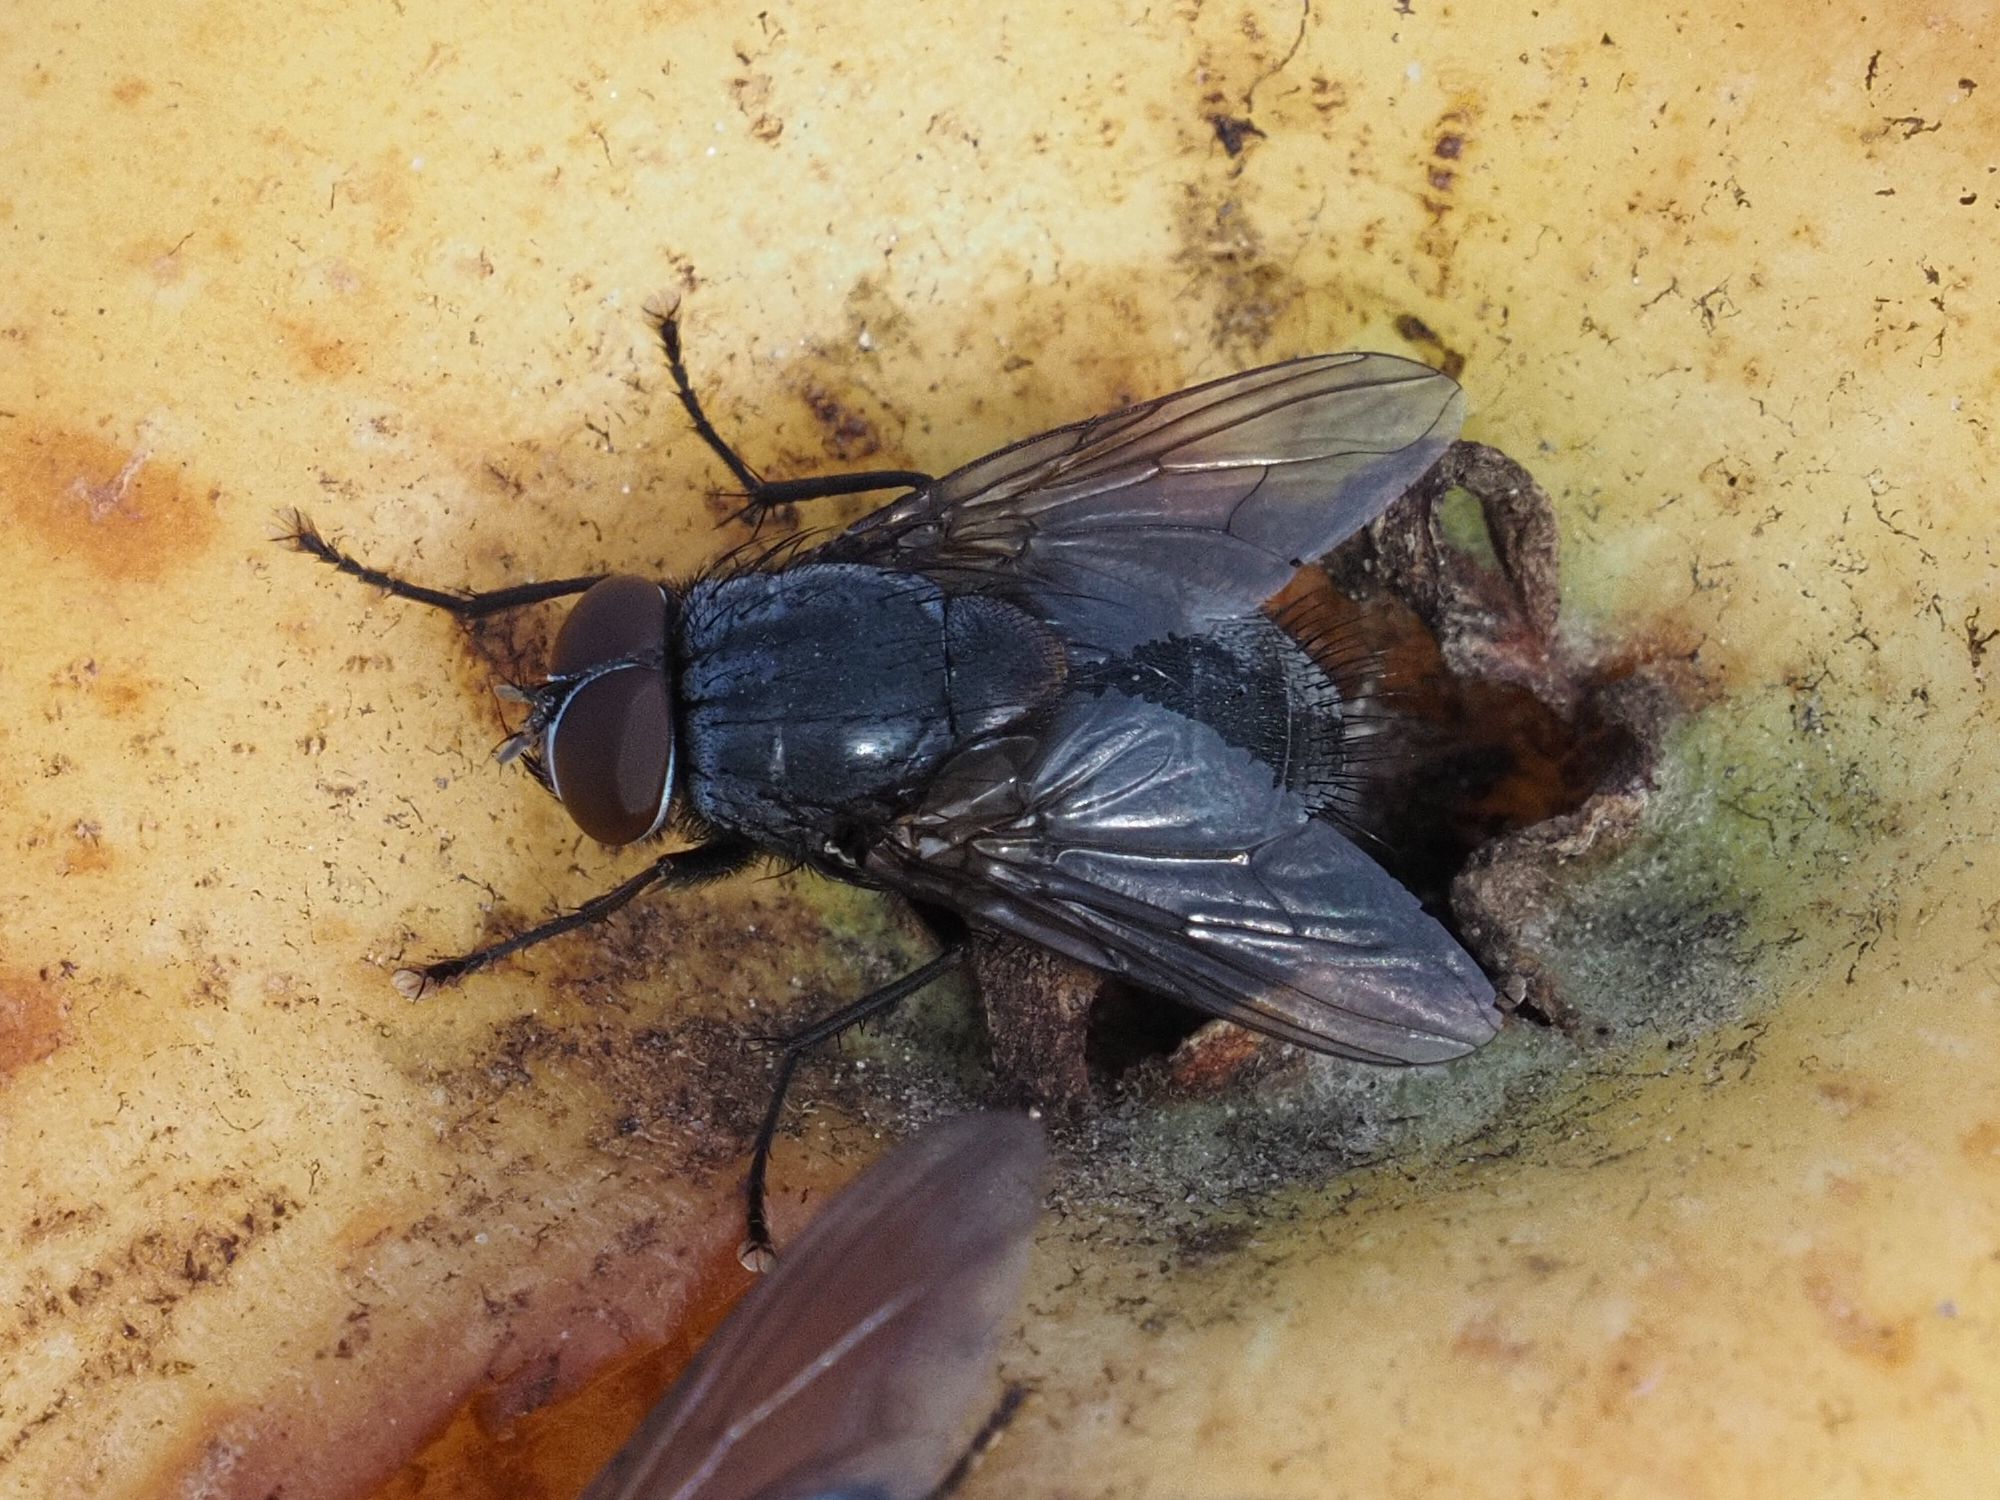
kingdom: Animalia
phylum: Arthropoda
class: Insecta
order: Diptera
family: Muscidae
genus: Muscina
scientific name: Muscina pascuorum
